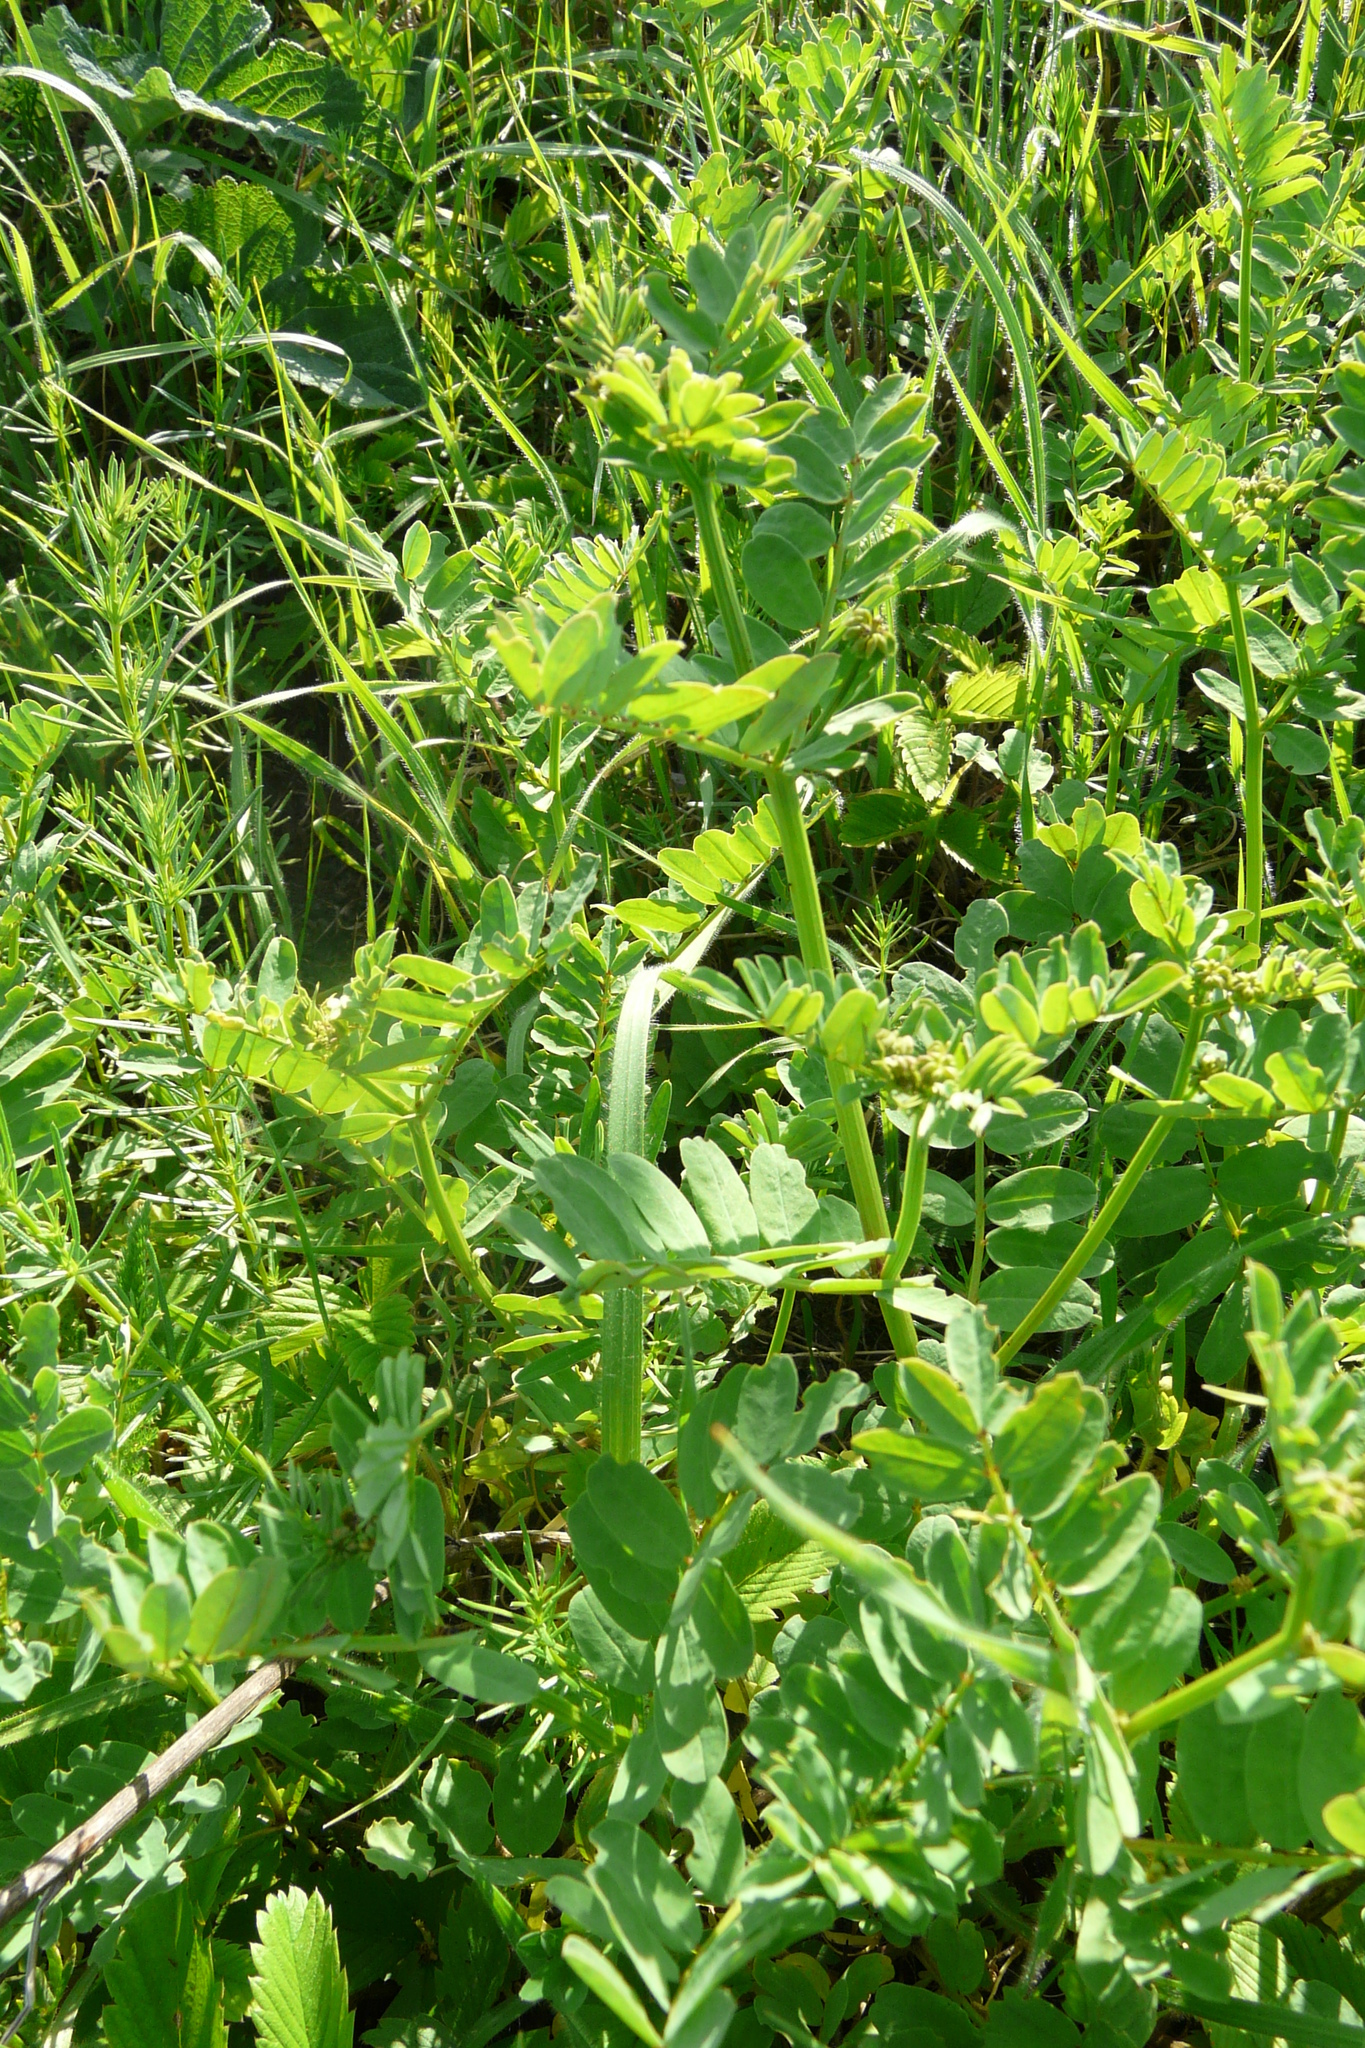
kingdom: Plantae
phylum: Tracheophyta
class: Magnoliopsida
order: Fabales
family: Fabaceae
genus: Coronilla
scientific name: Coronilla varia
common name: Crownvetch
